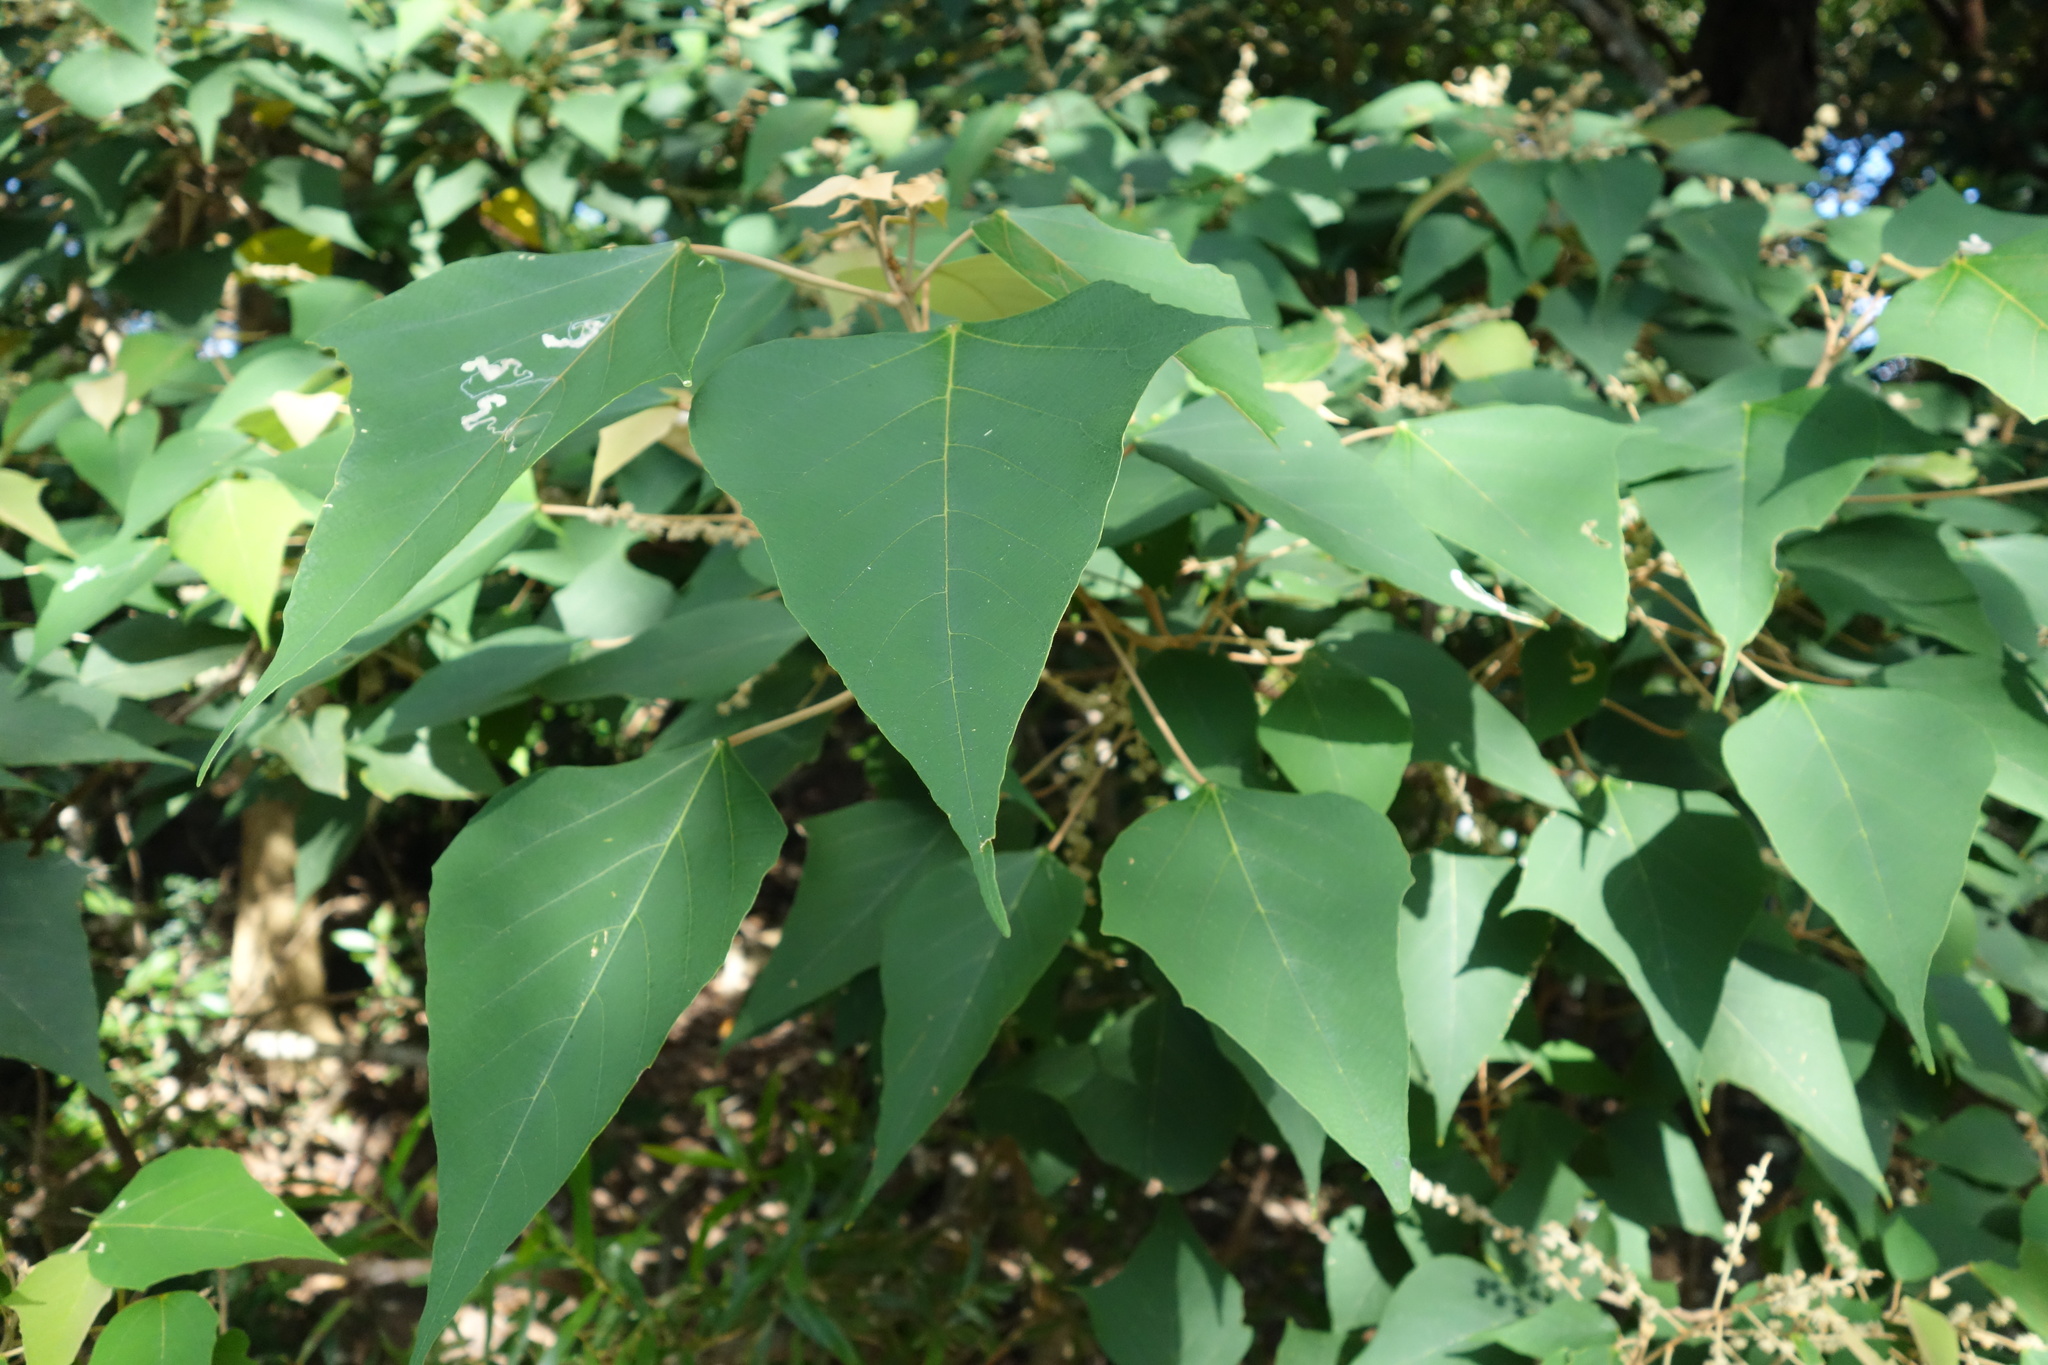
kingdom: Plantae
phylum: Tracheophyta
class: Magnoliopsida
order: Malpighiales
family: Euphorbiaceae
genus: Mallotus
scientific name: Mallotus paniculatus
